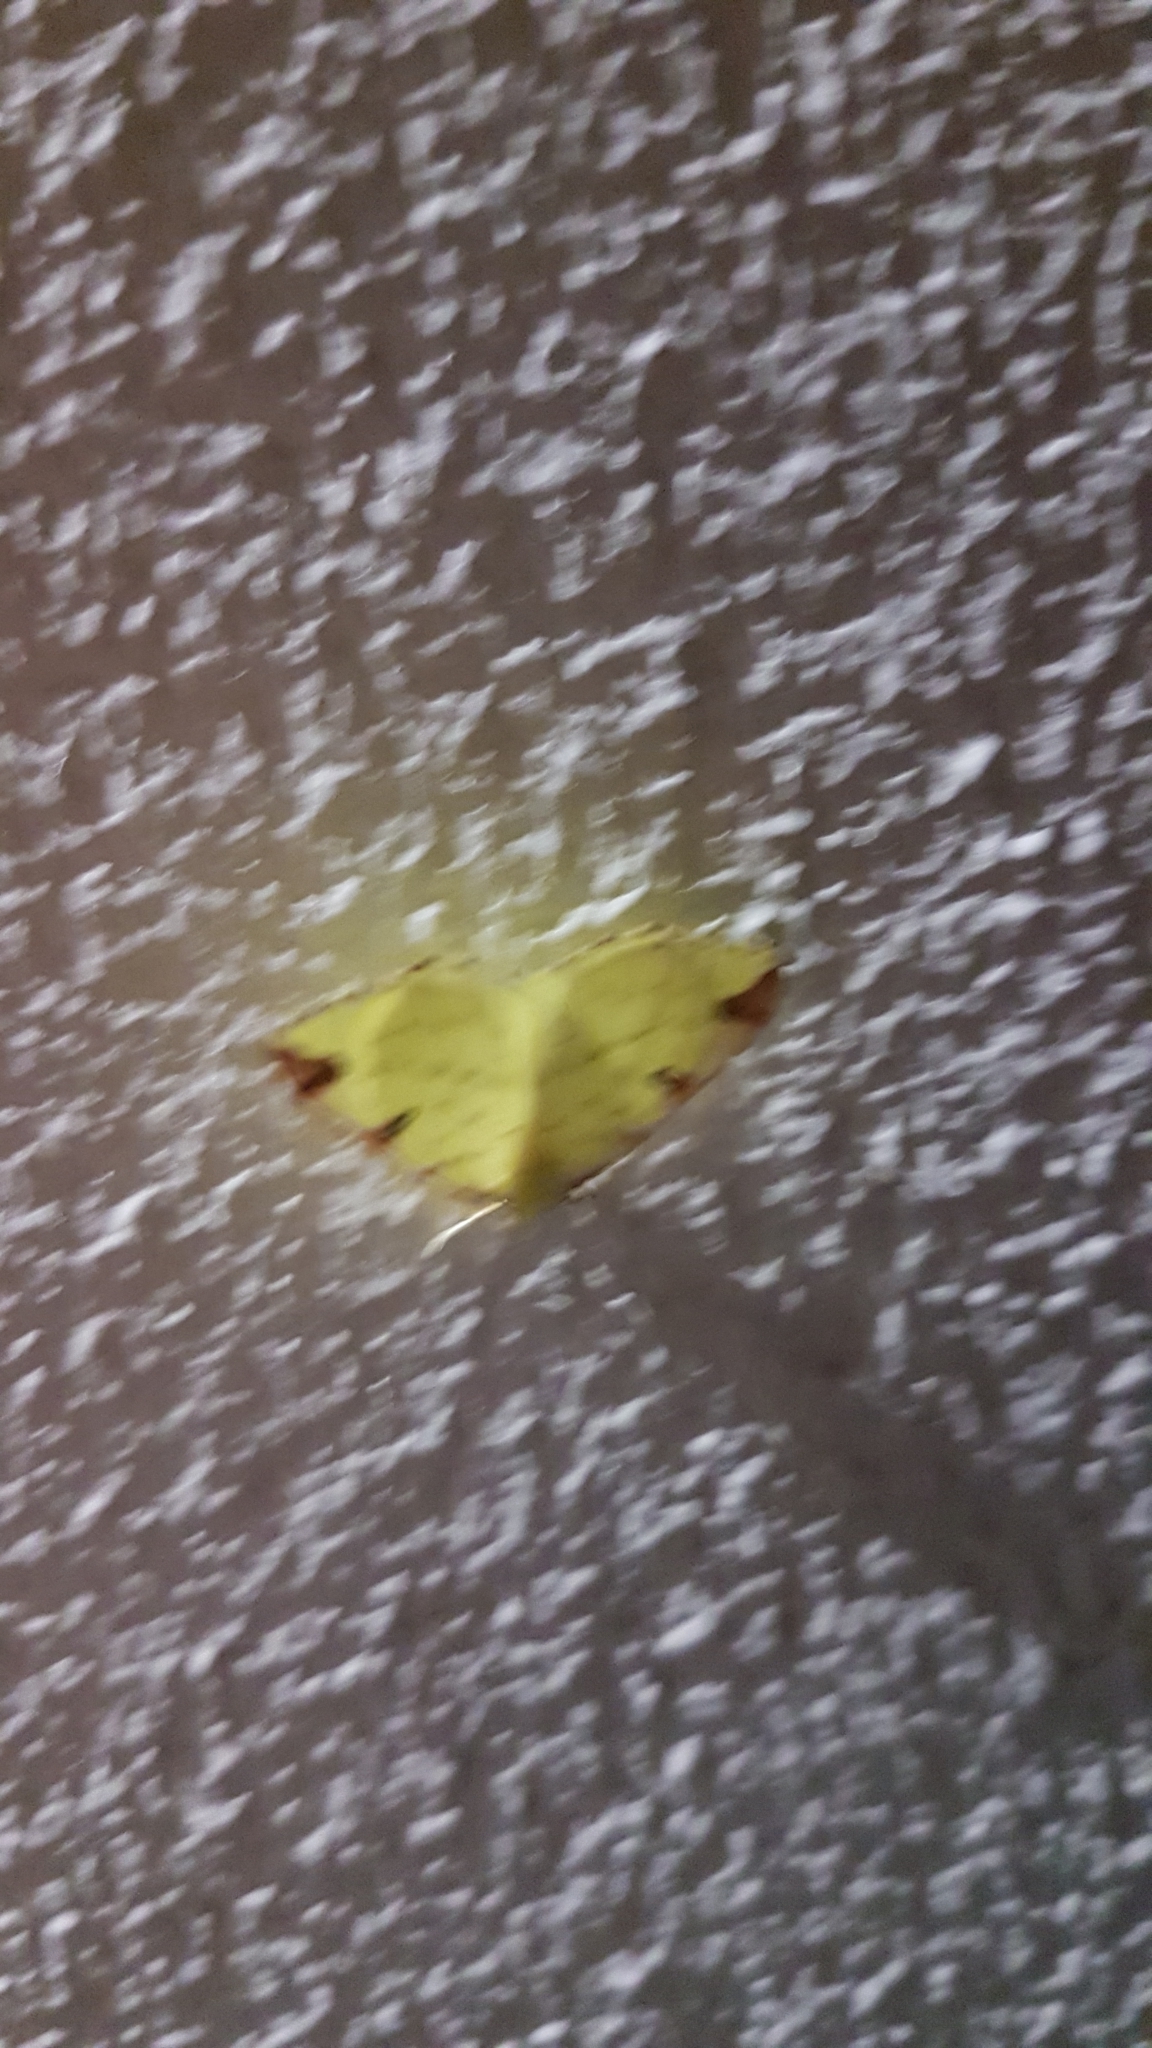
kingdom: Animalia
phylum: Arthropoda
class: Insecta
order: Lepidoptera
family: Geometridae
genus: Opisthograptis
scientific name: Opisthograptis luteolata
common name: Brimstone moth
